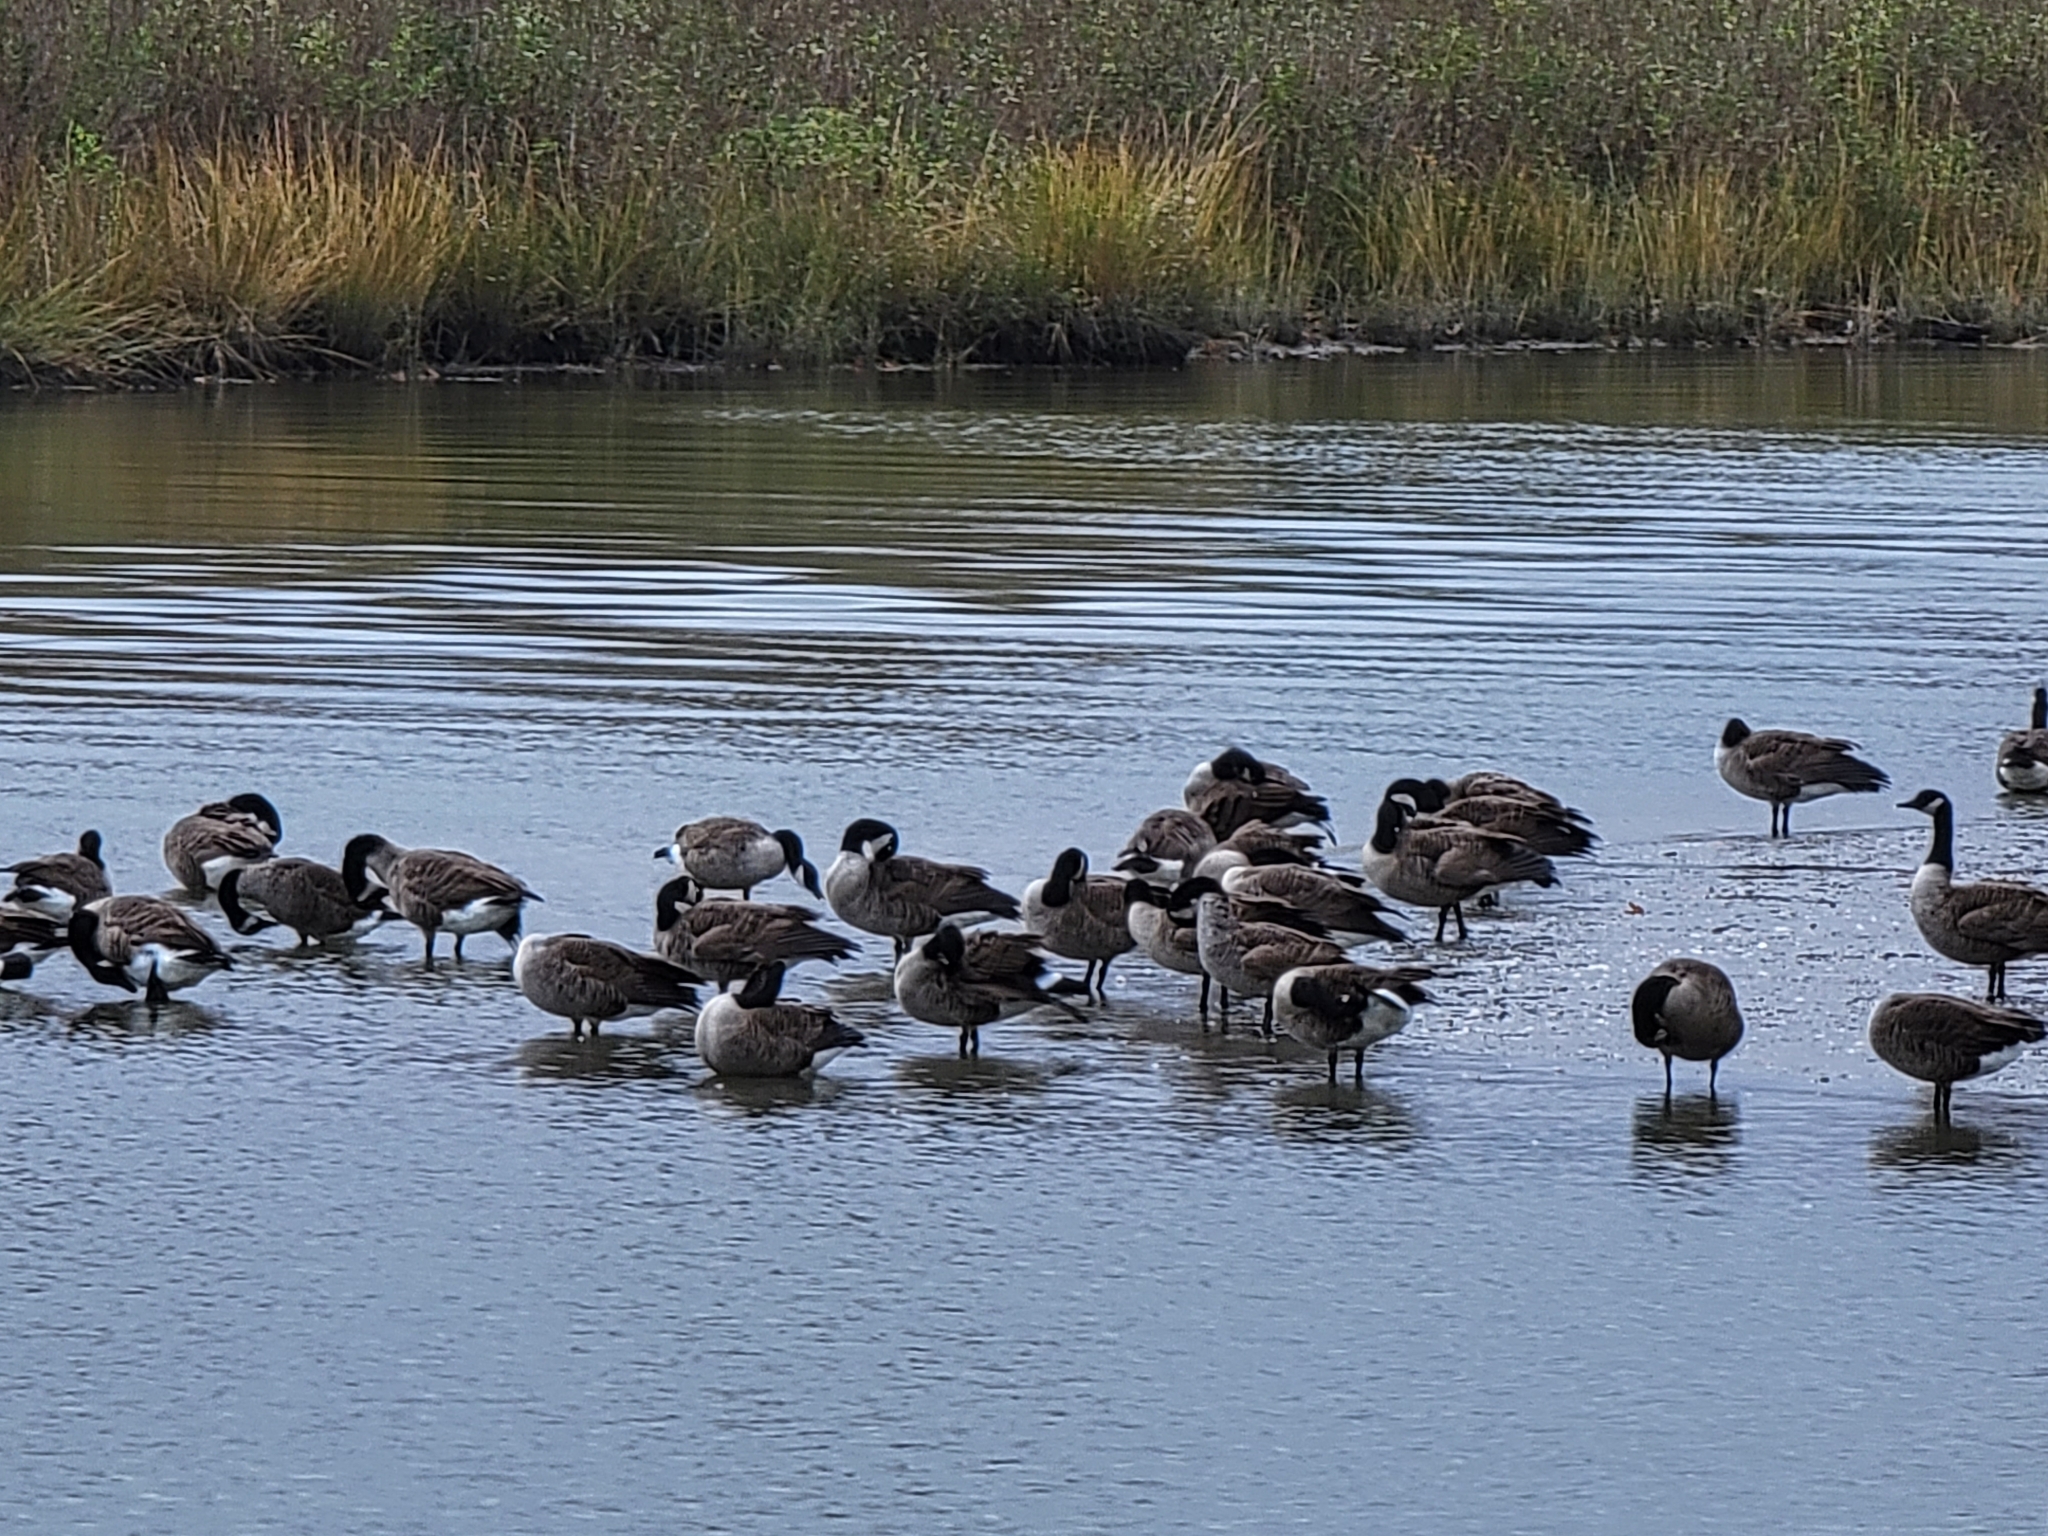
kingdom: Animalia
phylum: Chordata
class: Aves
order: Anseriformes
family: Anatidae
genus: Branta
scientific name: Branta canadensis
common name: Canada goose
